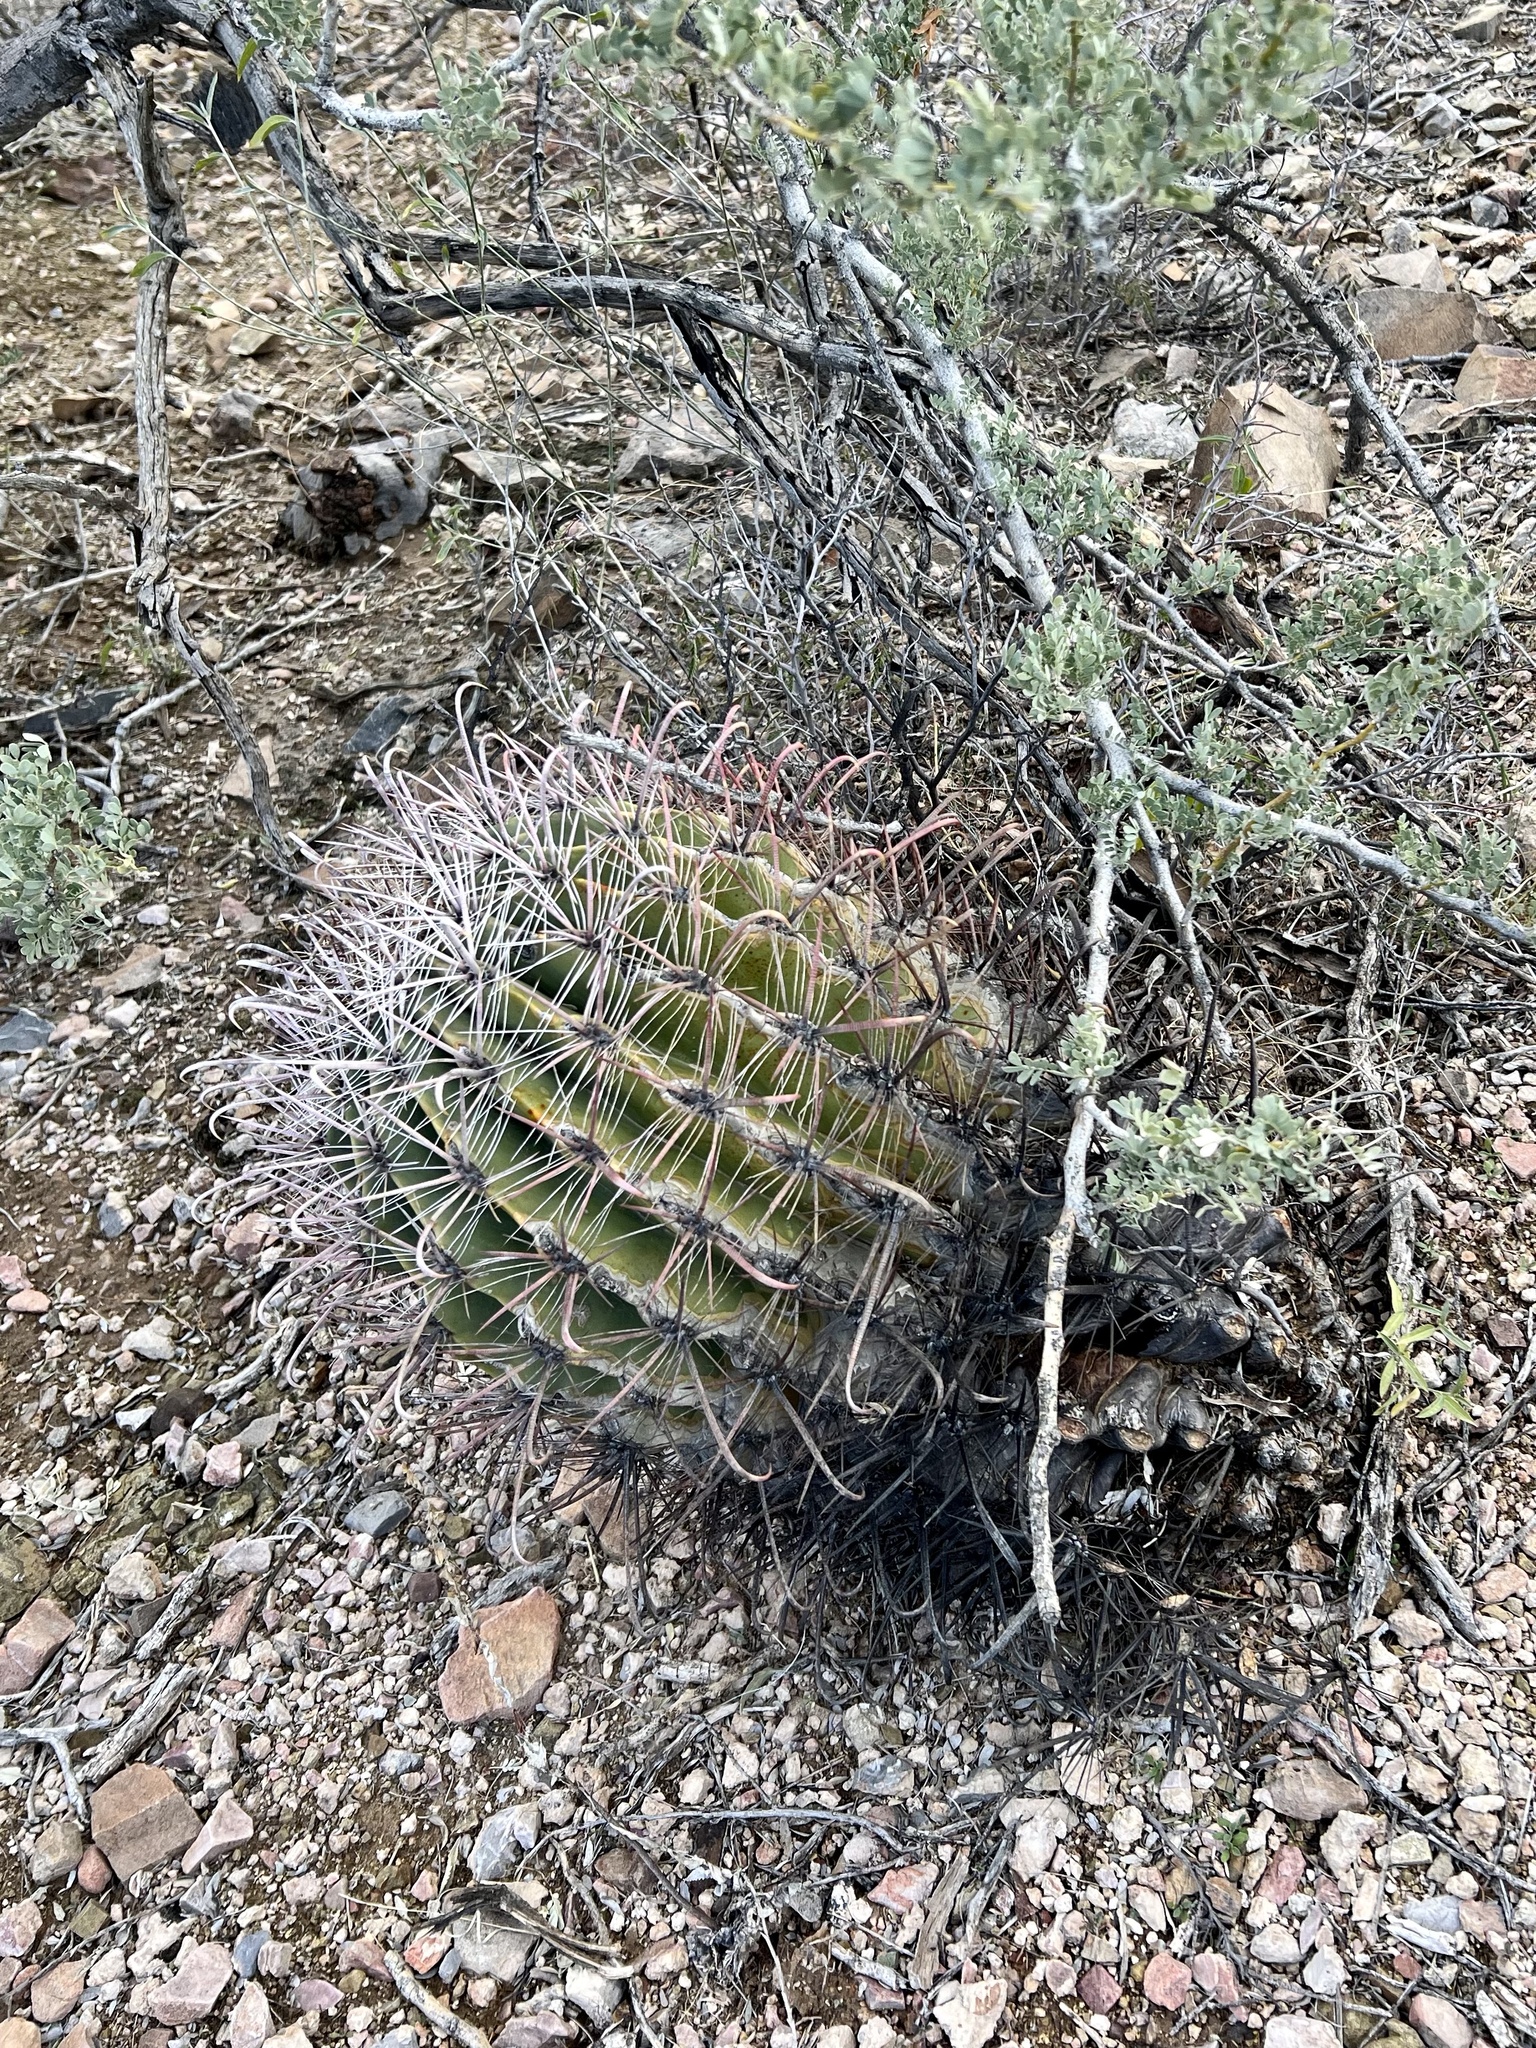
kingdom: Plantae
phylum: Tracheophyta
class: Magnoliopsida
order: Caryophyllales
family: Cactaceae
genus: Ferocactus
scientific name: Ferocactus wislizeni
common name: Candy barrel cactus
